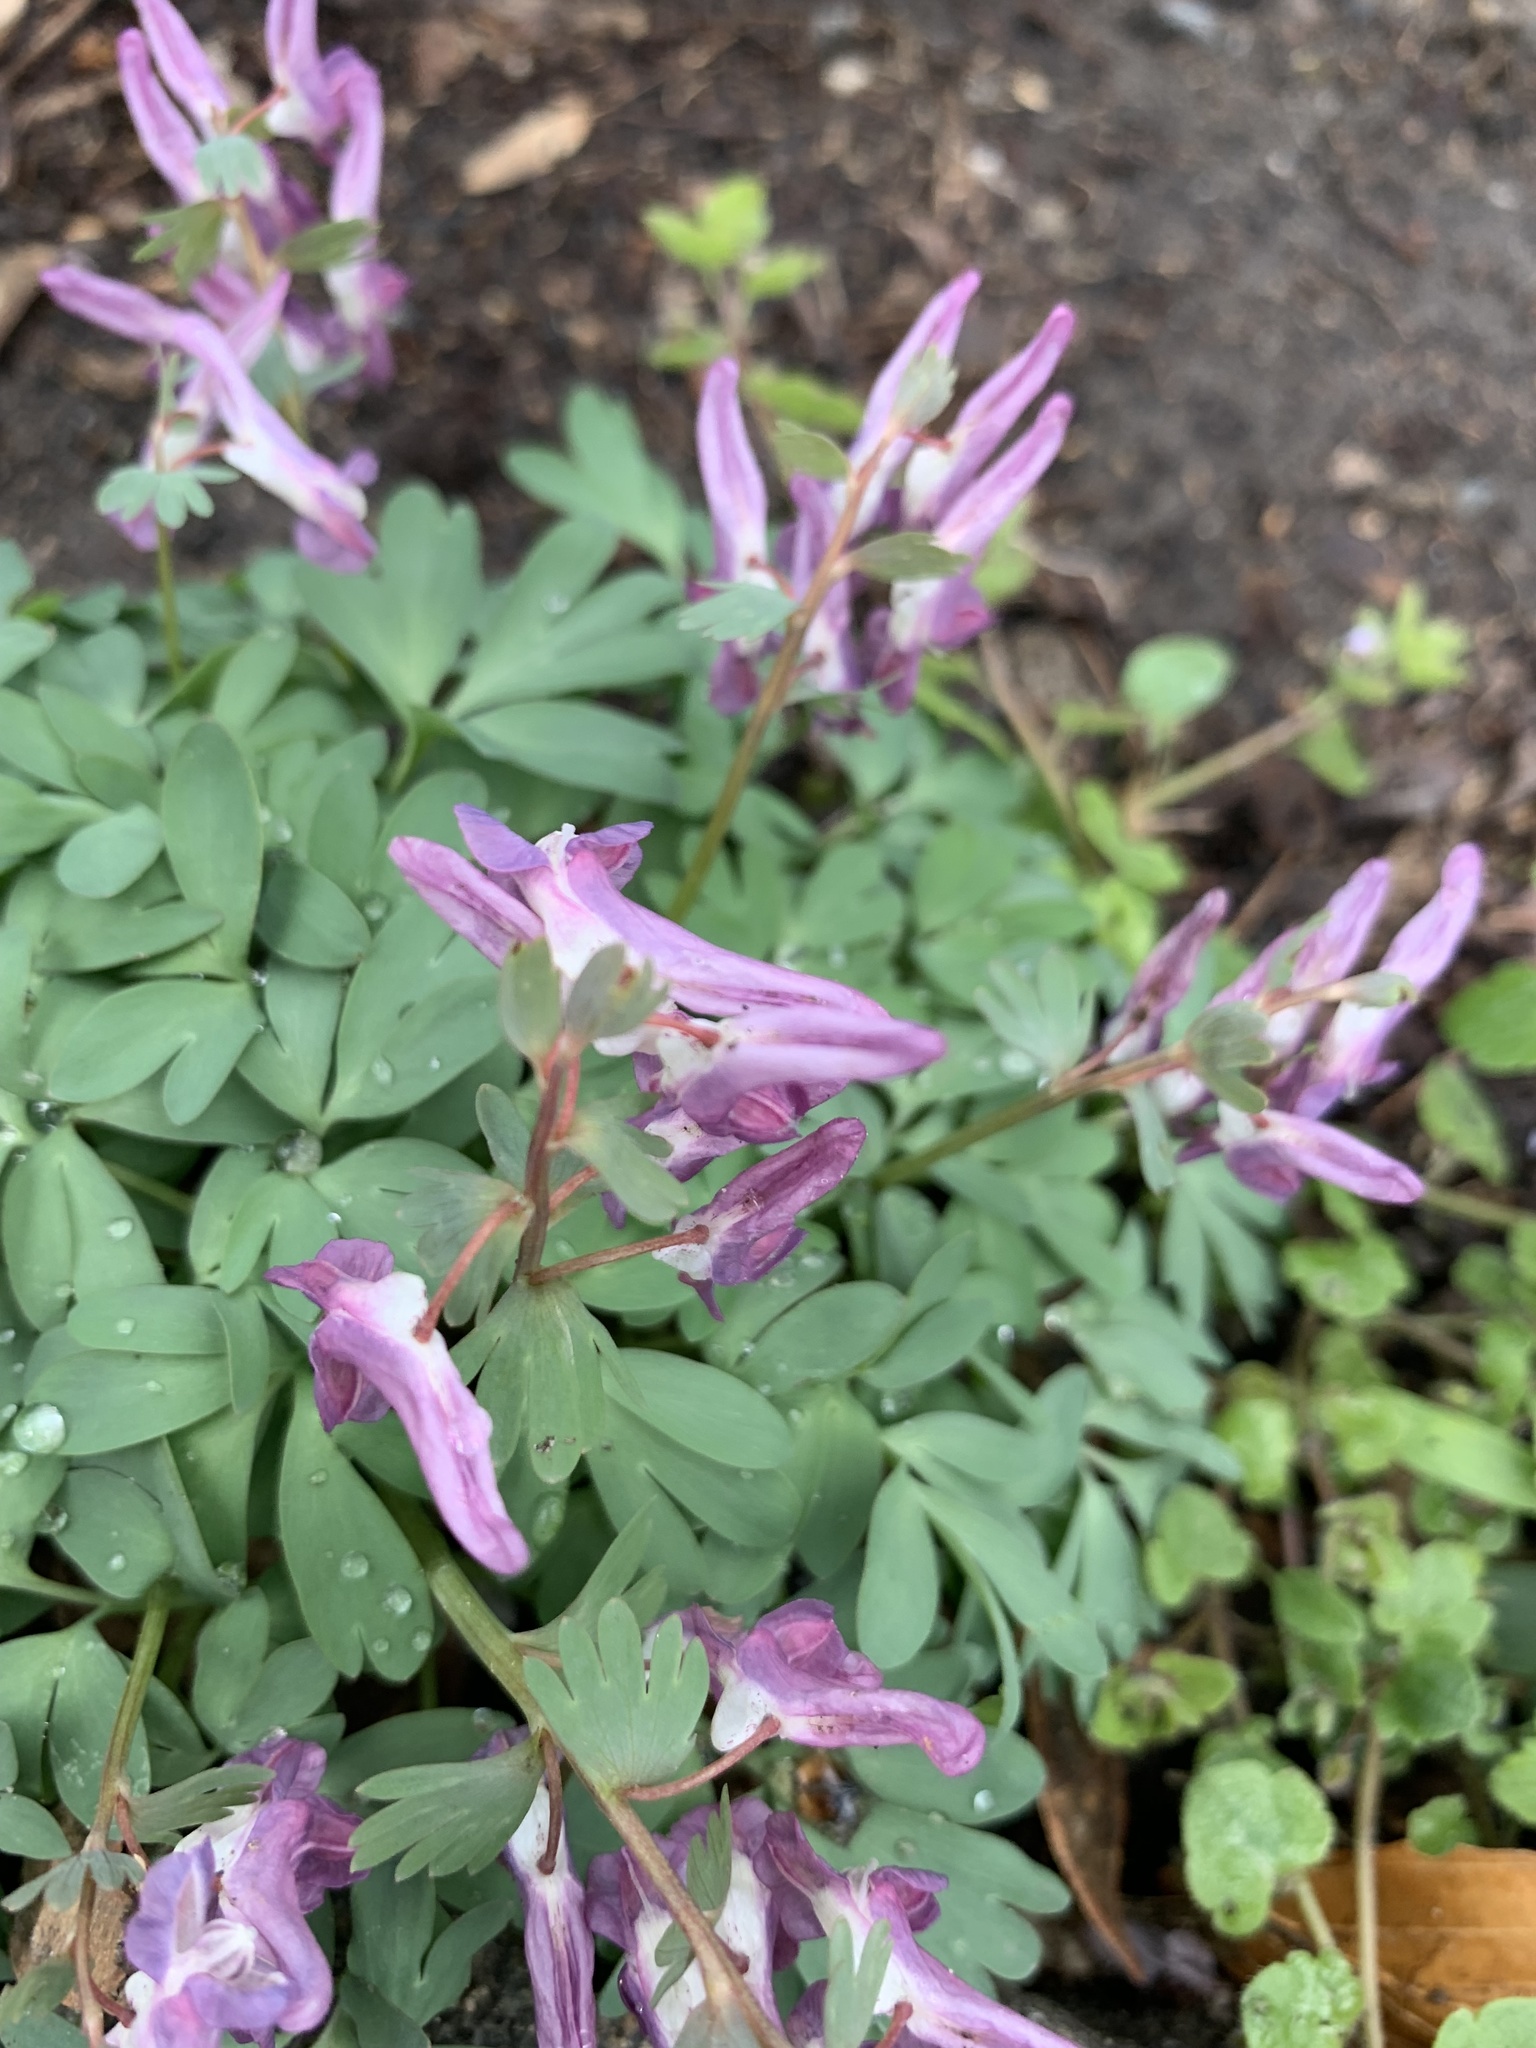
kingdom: Plantae
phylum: Tracheophyta
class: Magnoliopsida
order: Ranunculales
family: Papaveraceae
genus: Corydalis
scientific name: Corydalis solida
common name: Bird-in-a-bush
